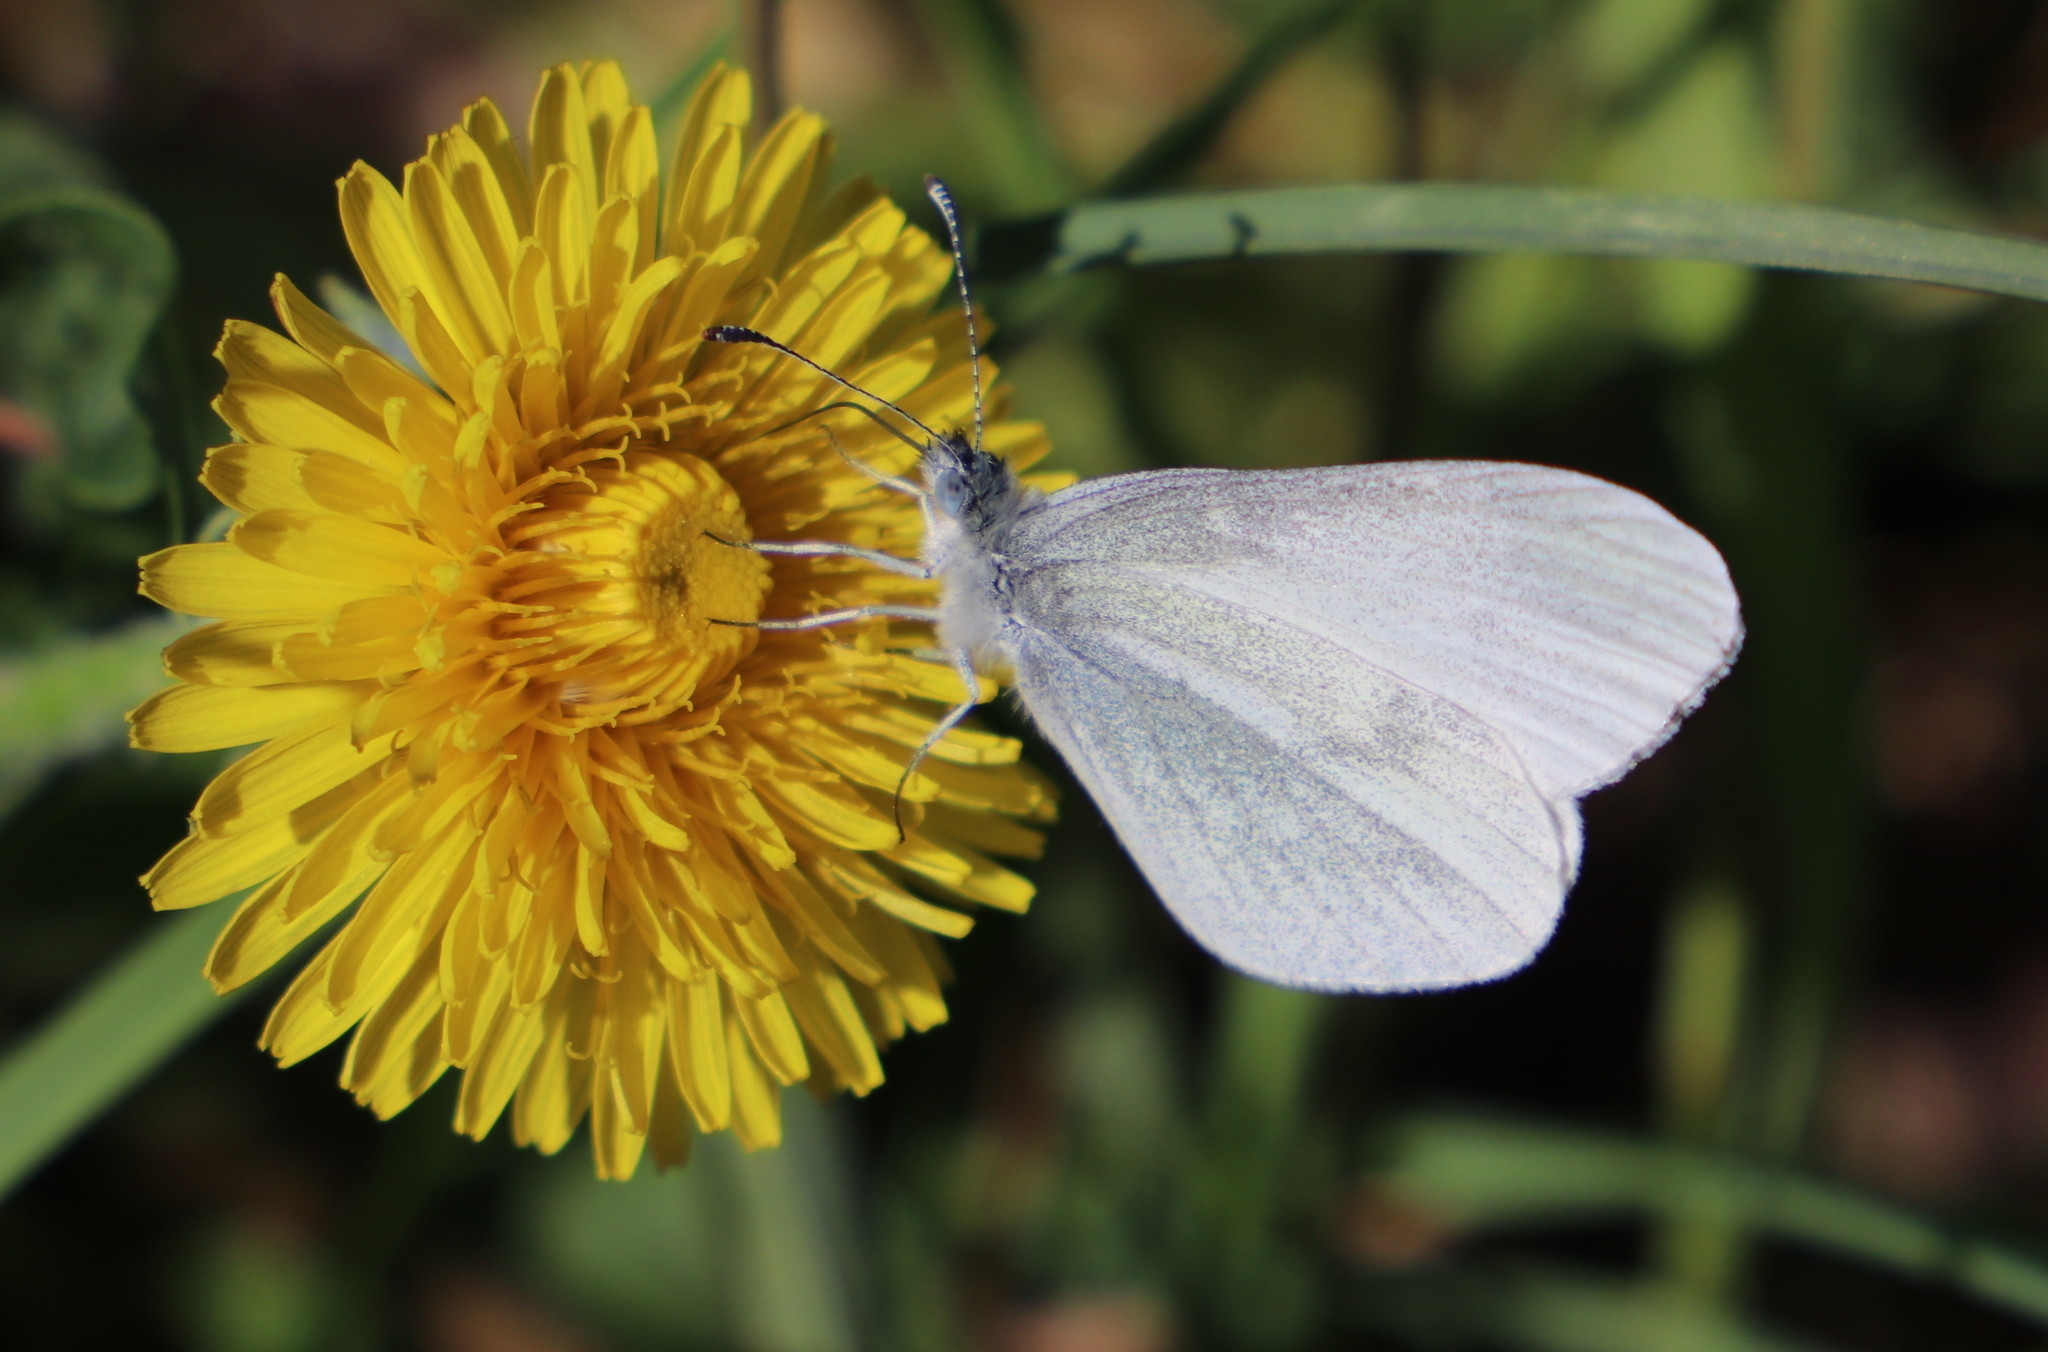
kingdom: Animalia
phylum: Arthropoda
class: Insecta
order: Lepidoptera
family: Pieridae
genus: Leptidea
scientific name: Leptidea
